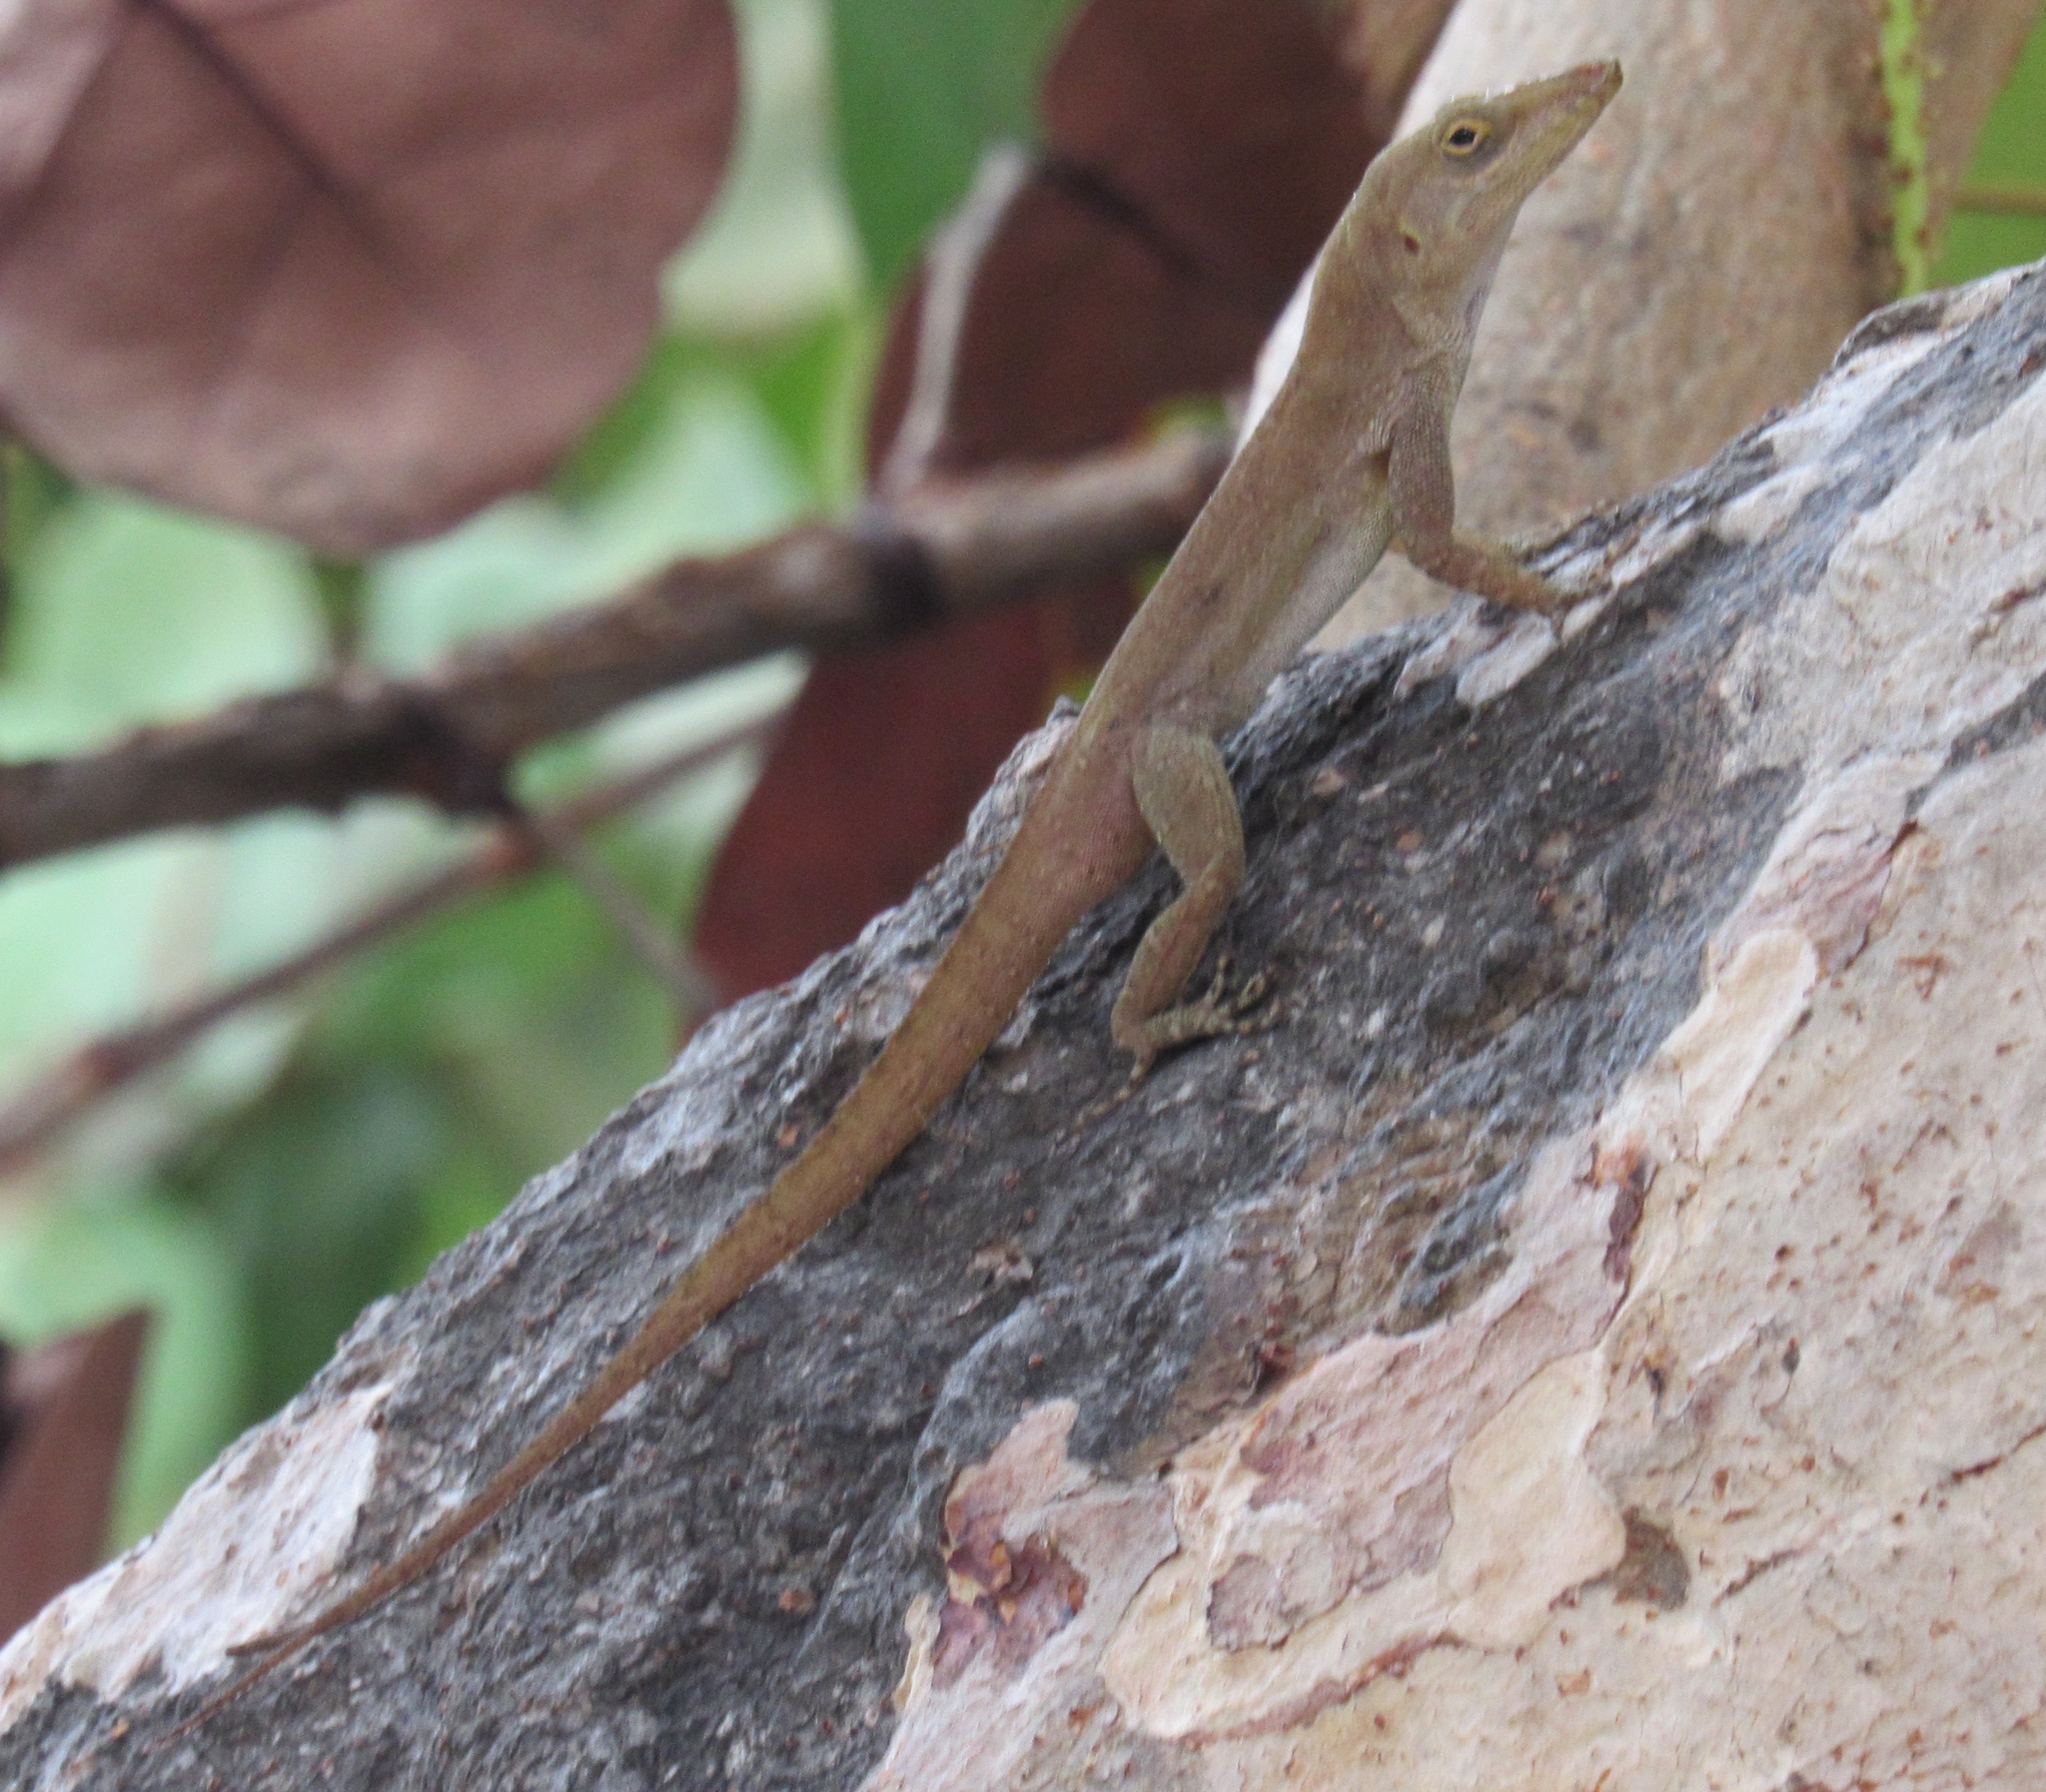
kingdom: Animalia
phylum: Chordata
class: Squamata
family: Dactyloidae
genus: Anolis
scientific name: Anolis acutus
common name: Saint croix's anole
